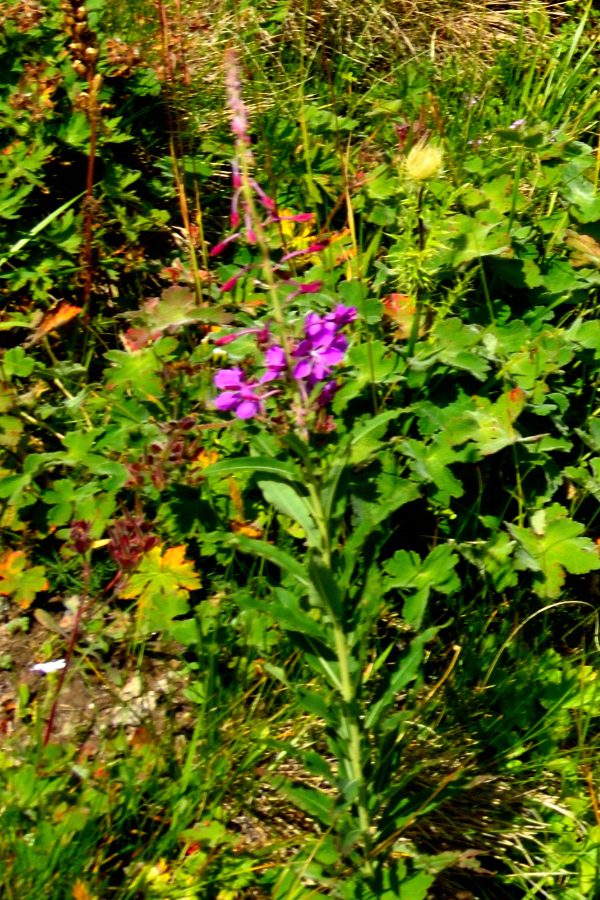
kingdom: Plantae
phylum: Tracheophyta
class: Magnoliopsida
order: Myrtales
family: Onagraceae
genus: Chamaenerion
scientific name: Chamaenerion angustifolium
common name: Fireweed
